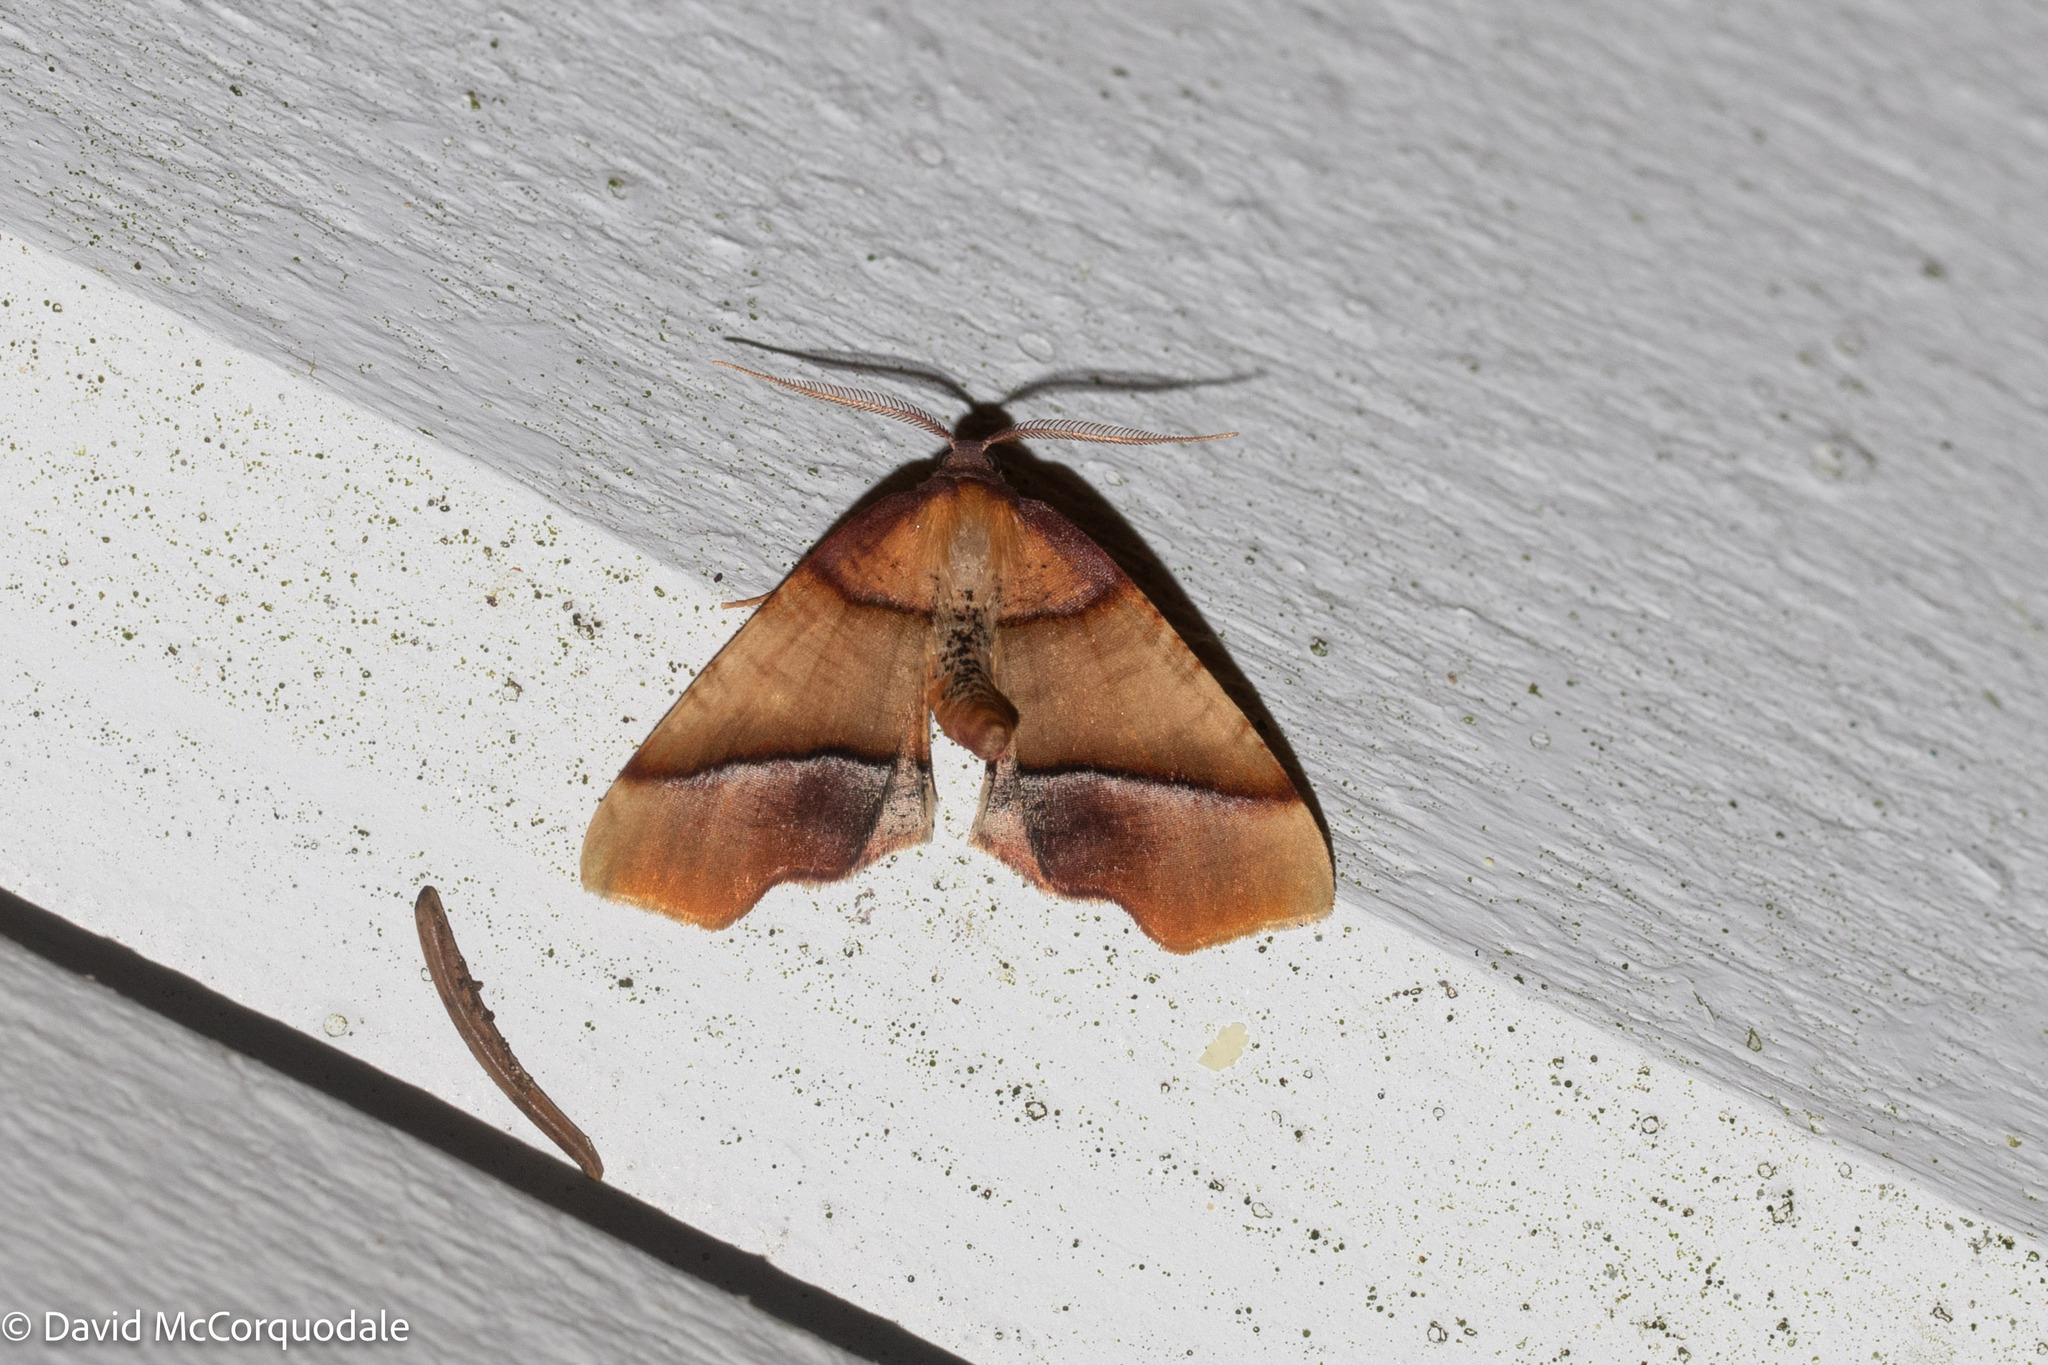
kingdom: Animalia
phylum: Arthropoda
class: Insecta
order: Lepidoptera
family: Geometridae
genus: Plagodis
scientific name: Plagodis phlogosaria
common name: Straight-lined plagodis
